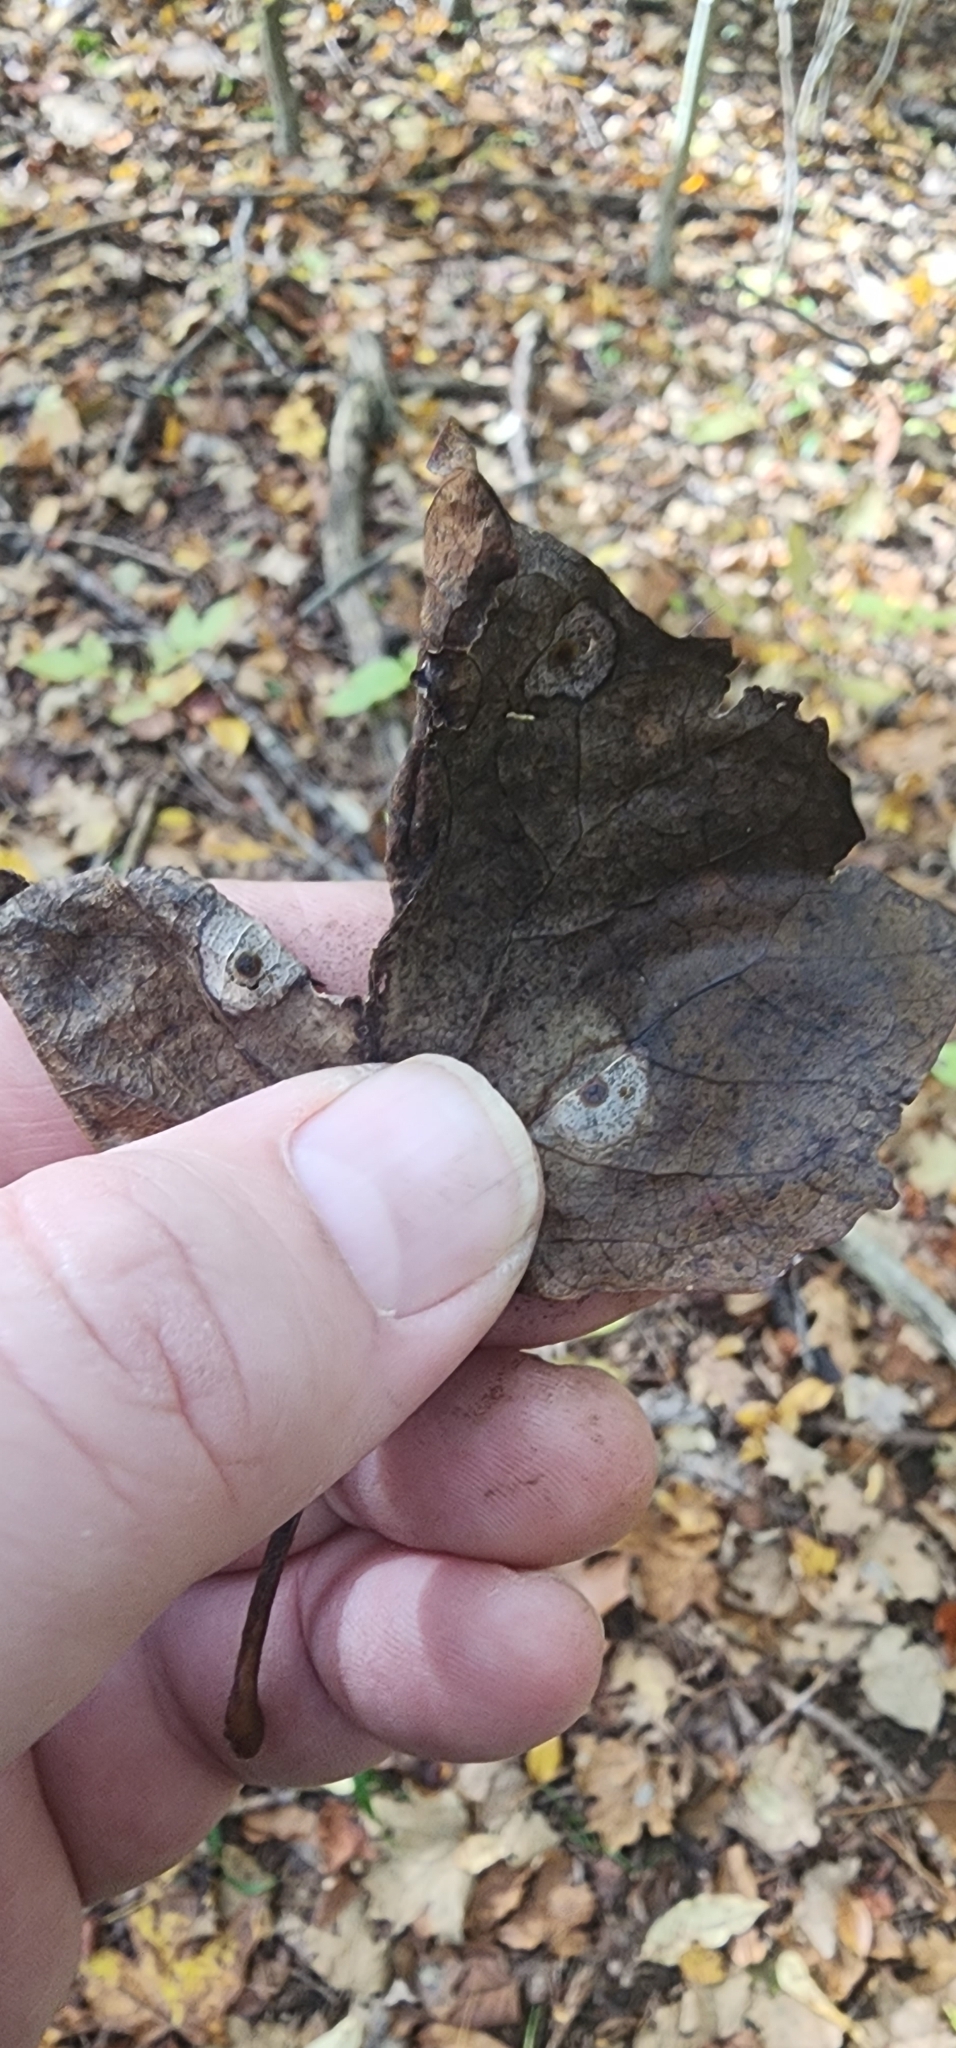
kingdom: Animalia
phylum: Arthropoda
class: Insecta
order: Diptera
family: Cecidomyiidae
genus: Resseliella
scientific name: Resseliella liriodendri
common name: Tulip tree leaf spot gall midge
